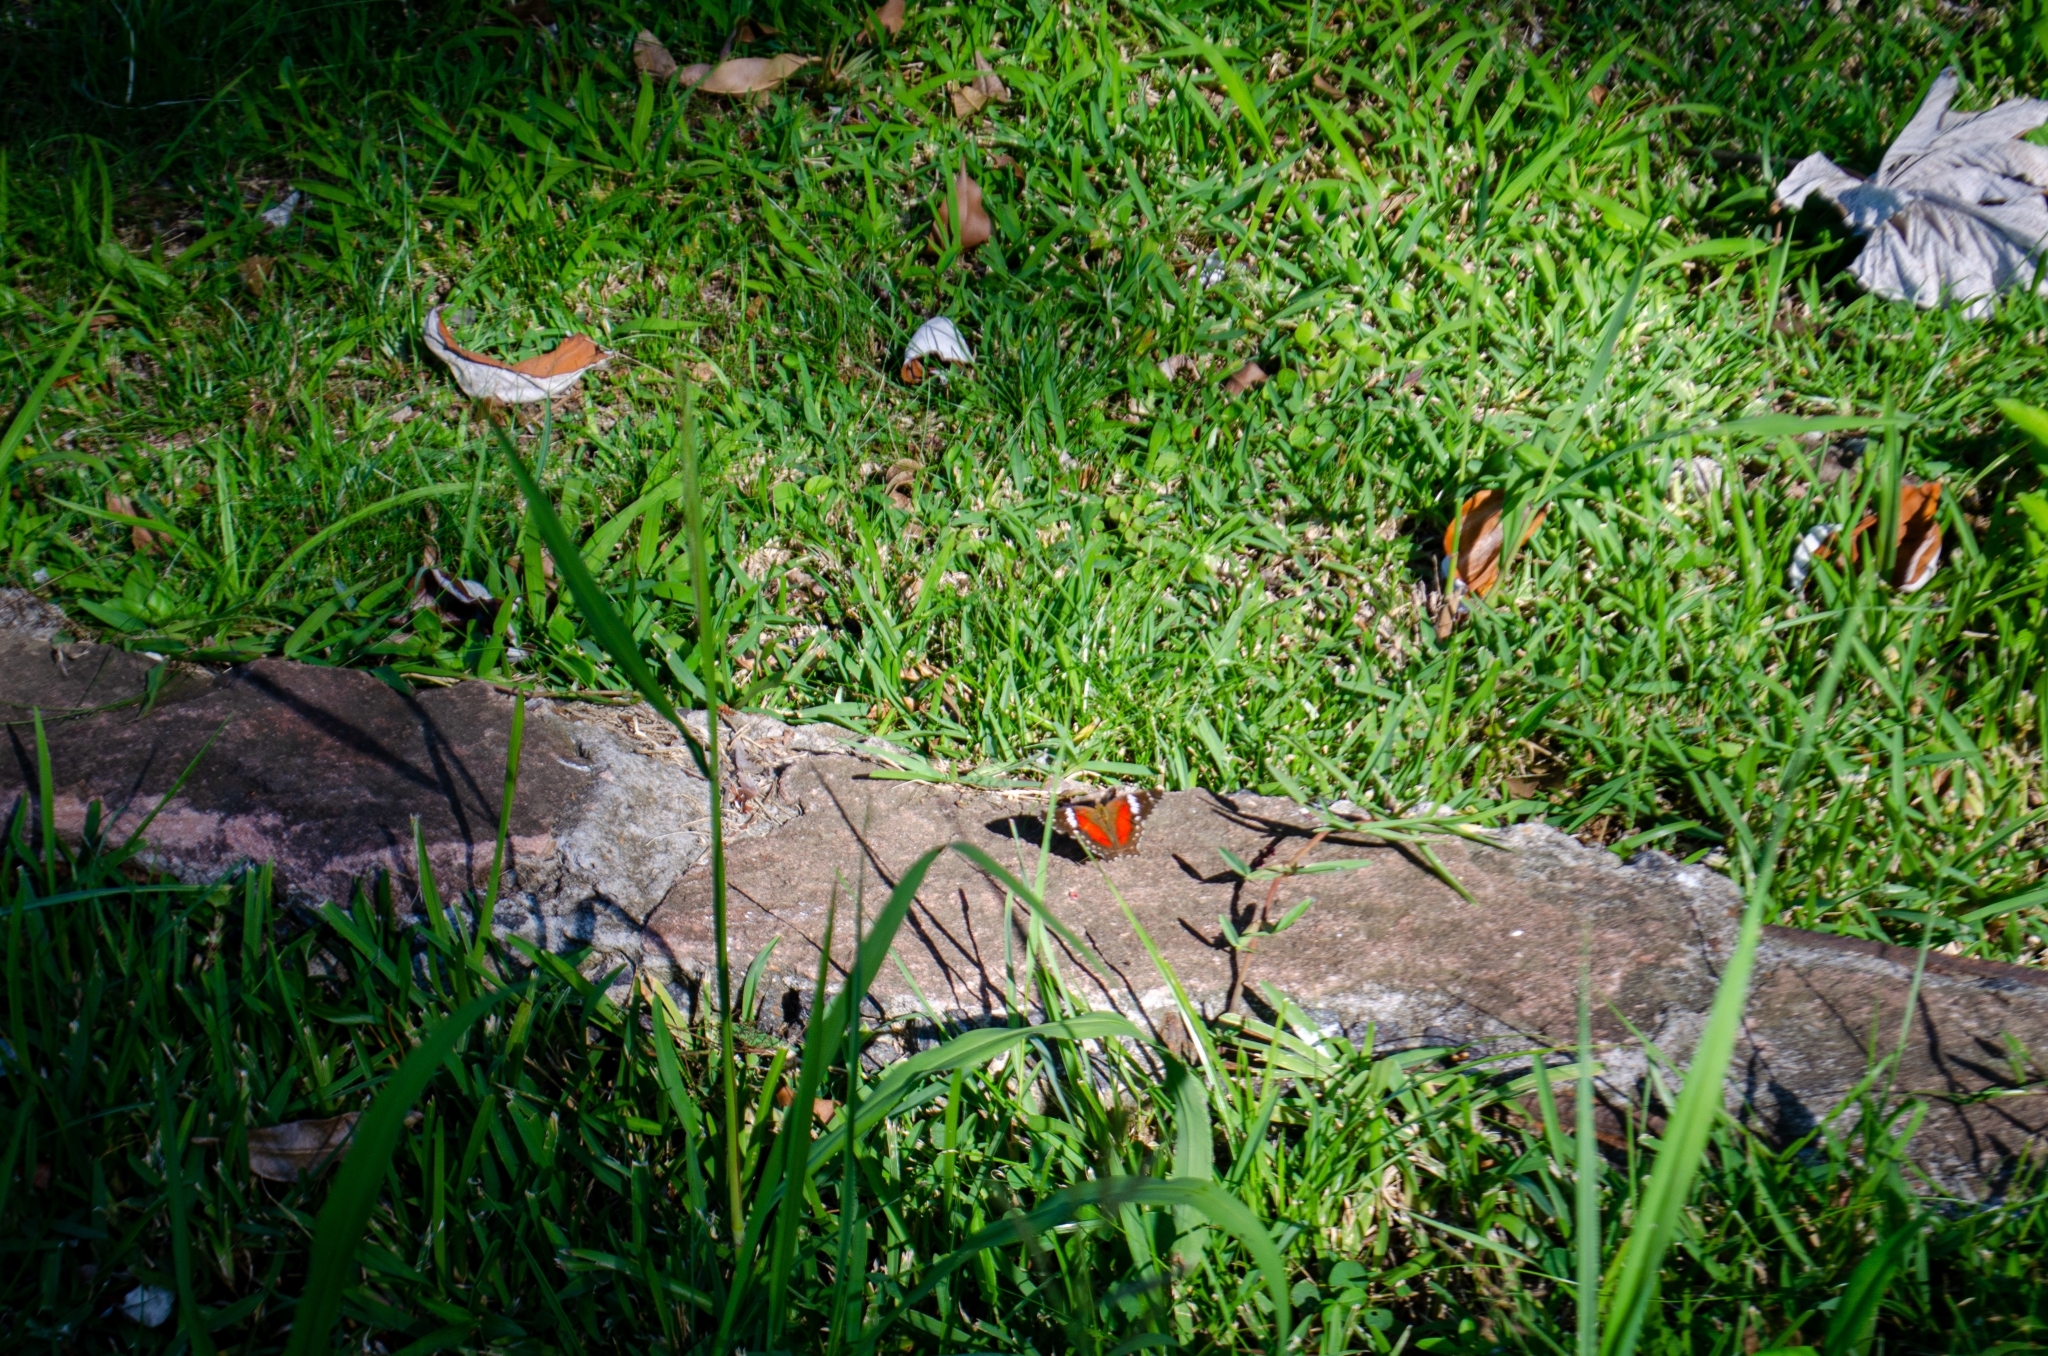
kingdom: Animalia
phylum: Arthropoda
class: Insecta
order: Lepidoptera
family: Nymphalidae
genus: Anartia
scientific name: Anartia amathea
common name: Red peacock
